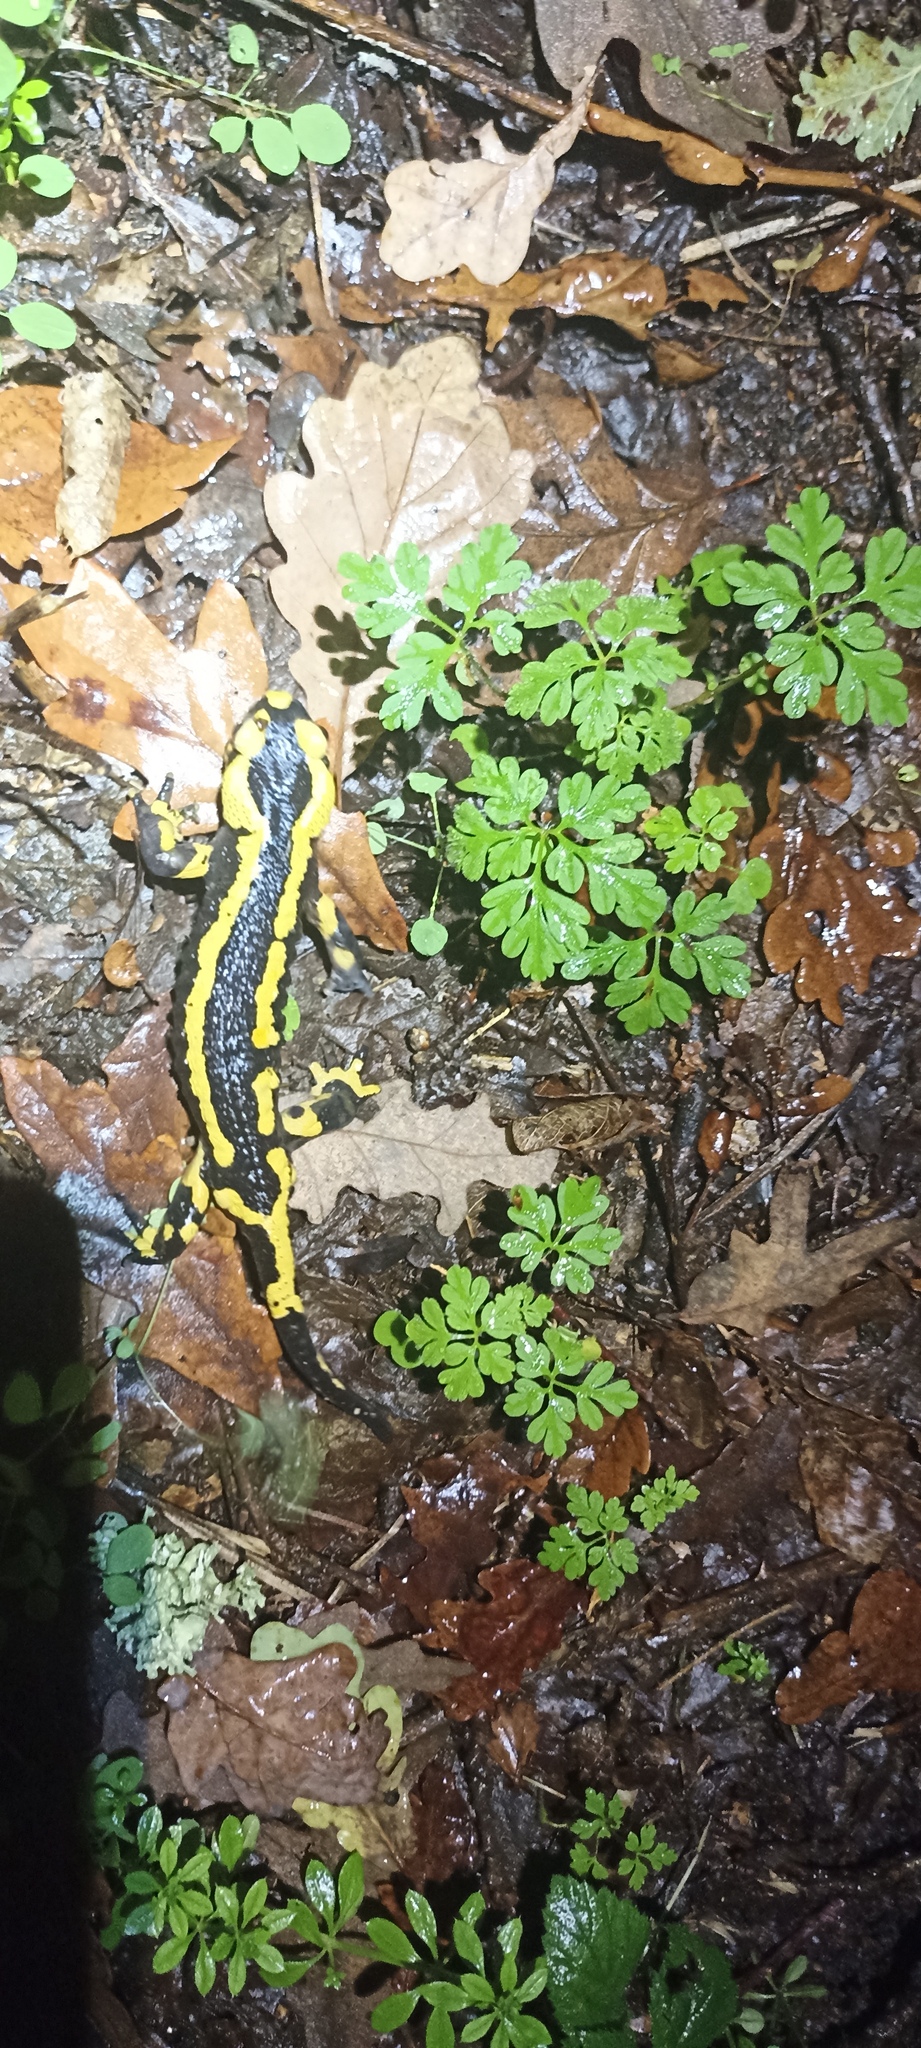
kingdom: Animalia
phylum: Chordata
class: Amphibia
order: Caudata
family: Salamandridae
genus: Salamandra
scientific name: Salamandra salamandra
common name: Fire salamander
